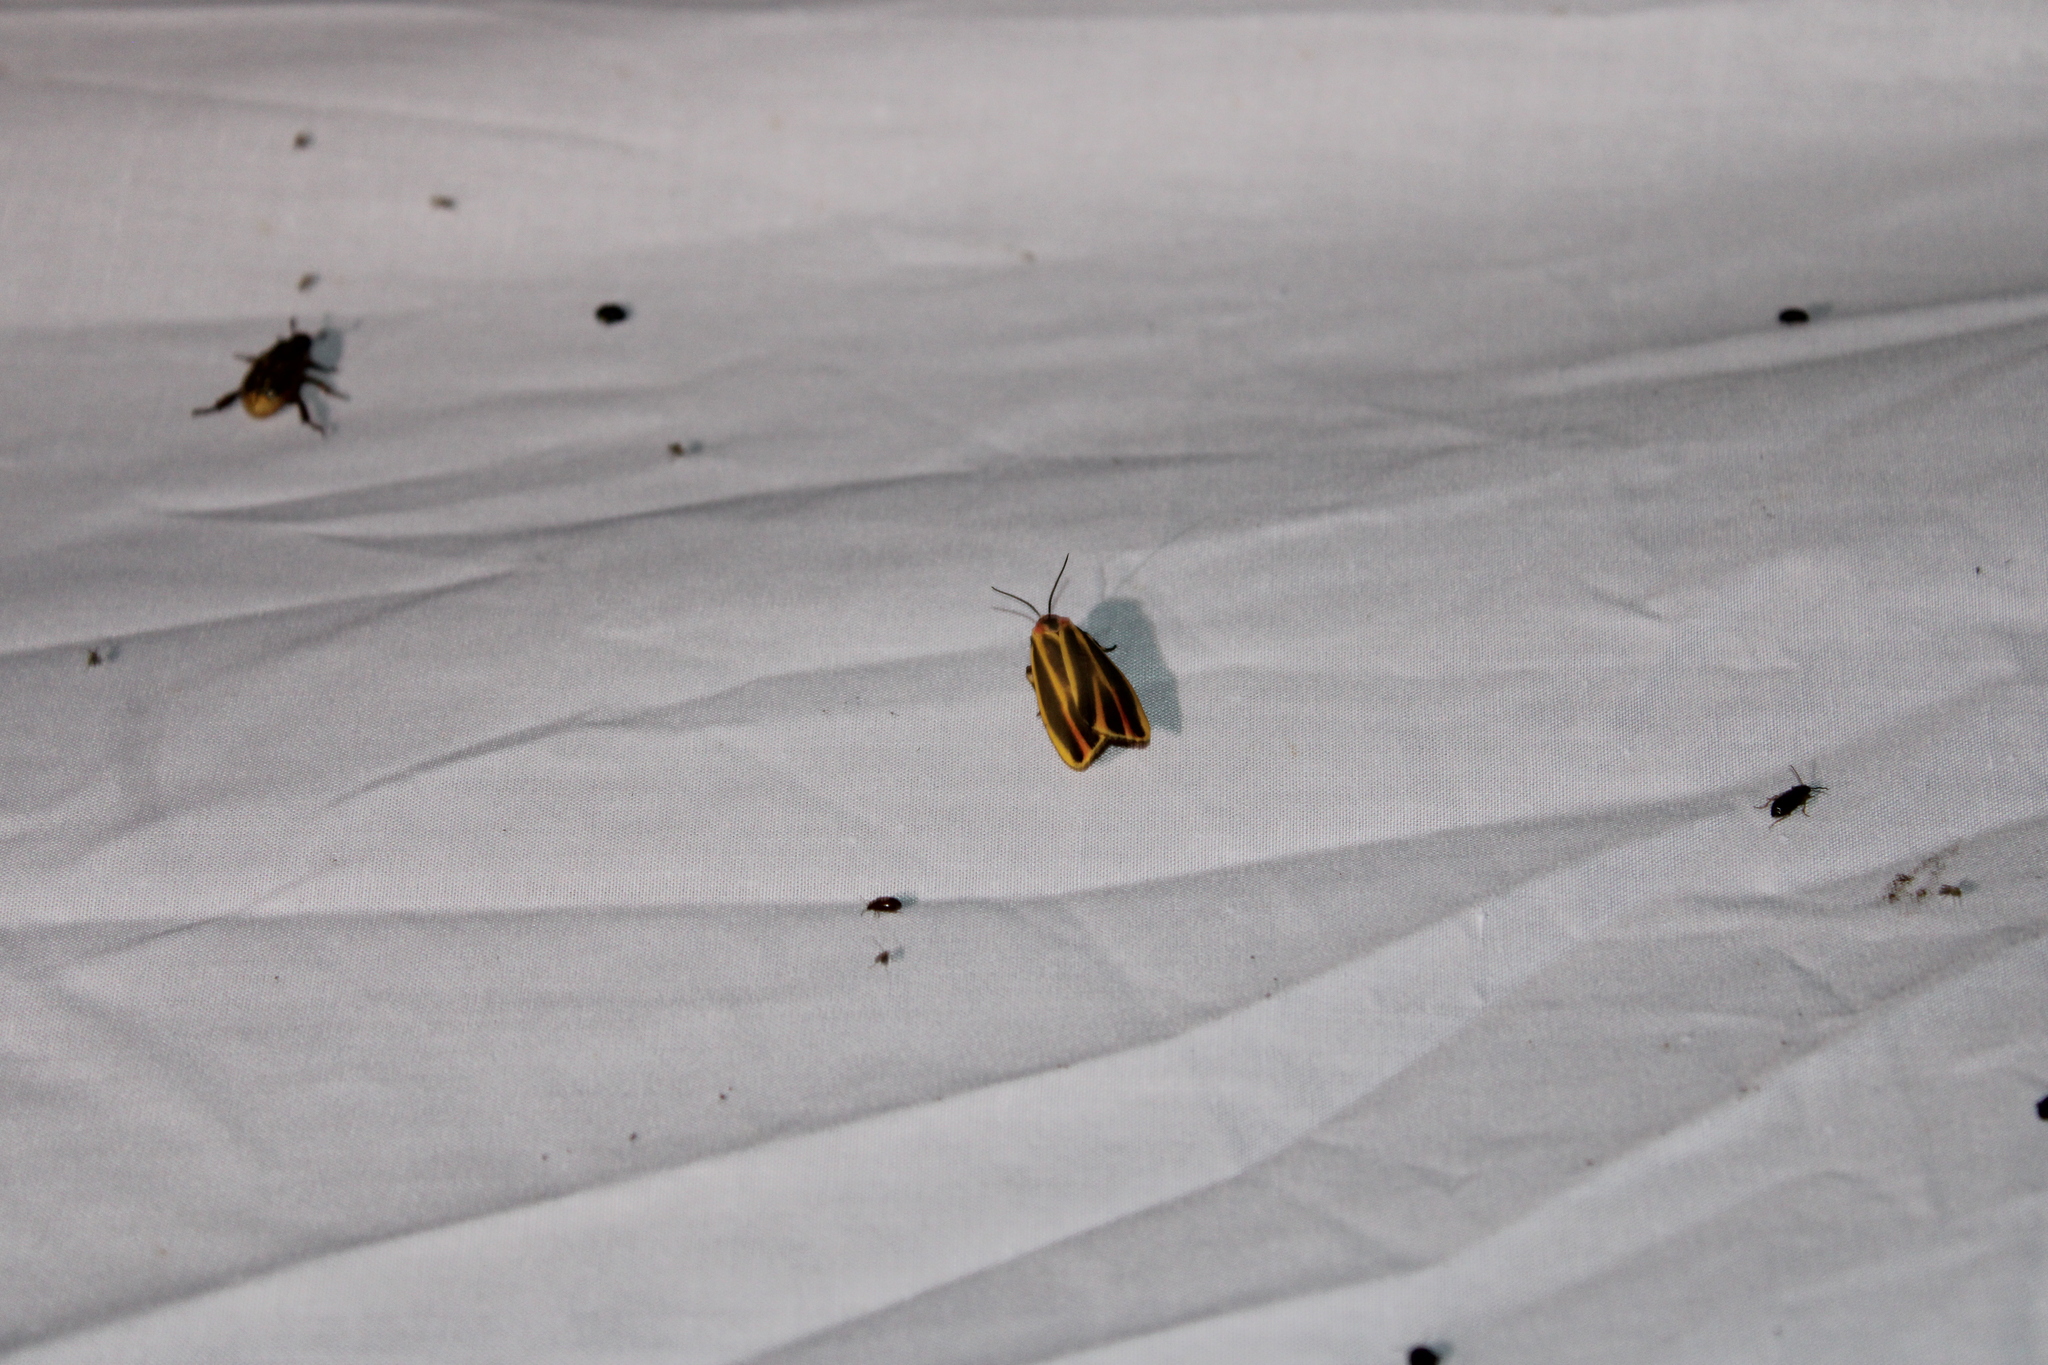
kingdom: Animalia
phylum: Arthropoda
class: Insecta
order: Lepidoptera
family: Erebidae
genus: Hypoprepia
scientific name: Hypoprepia fucosa
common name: Painted lichen moth
